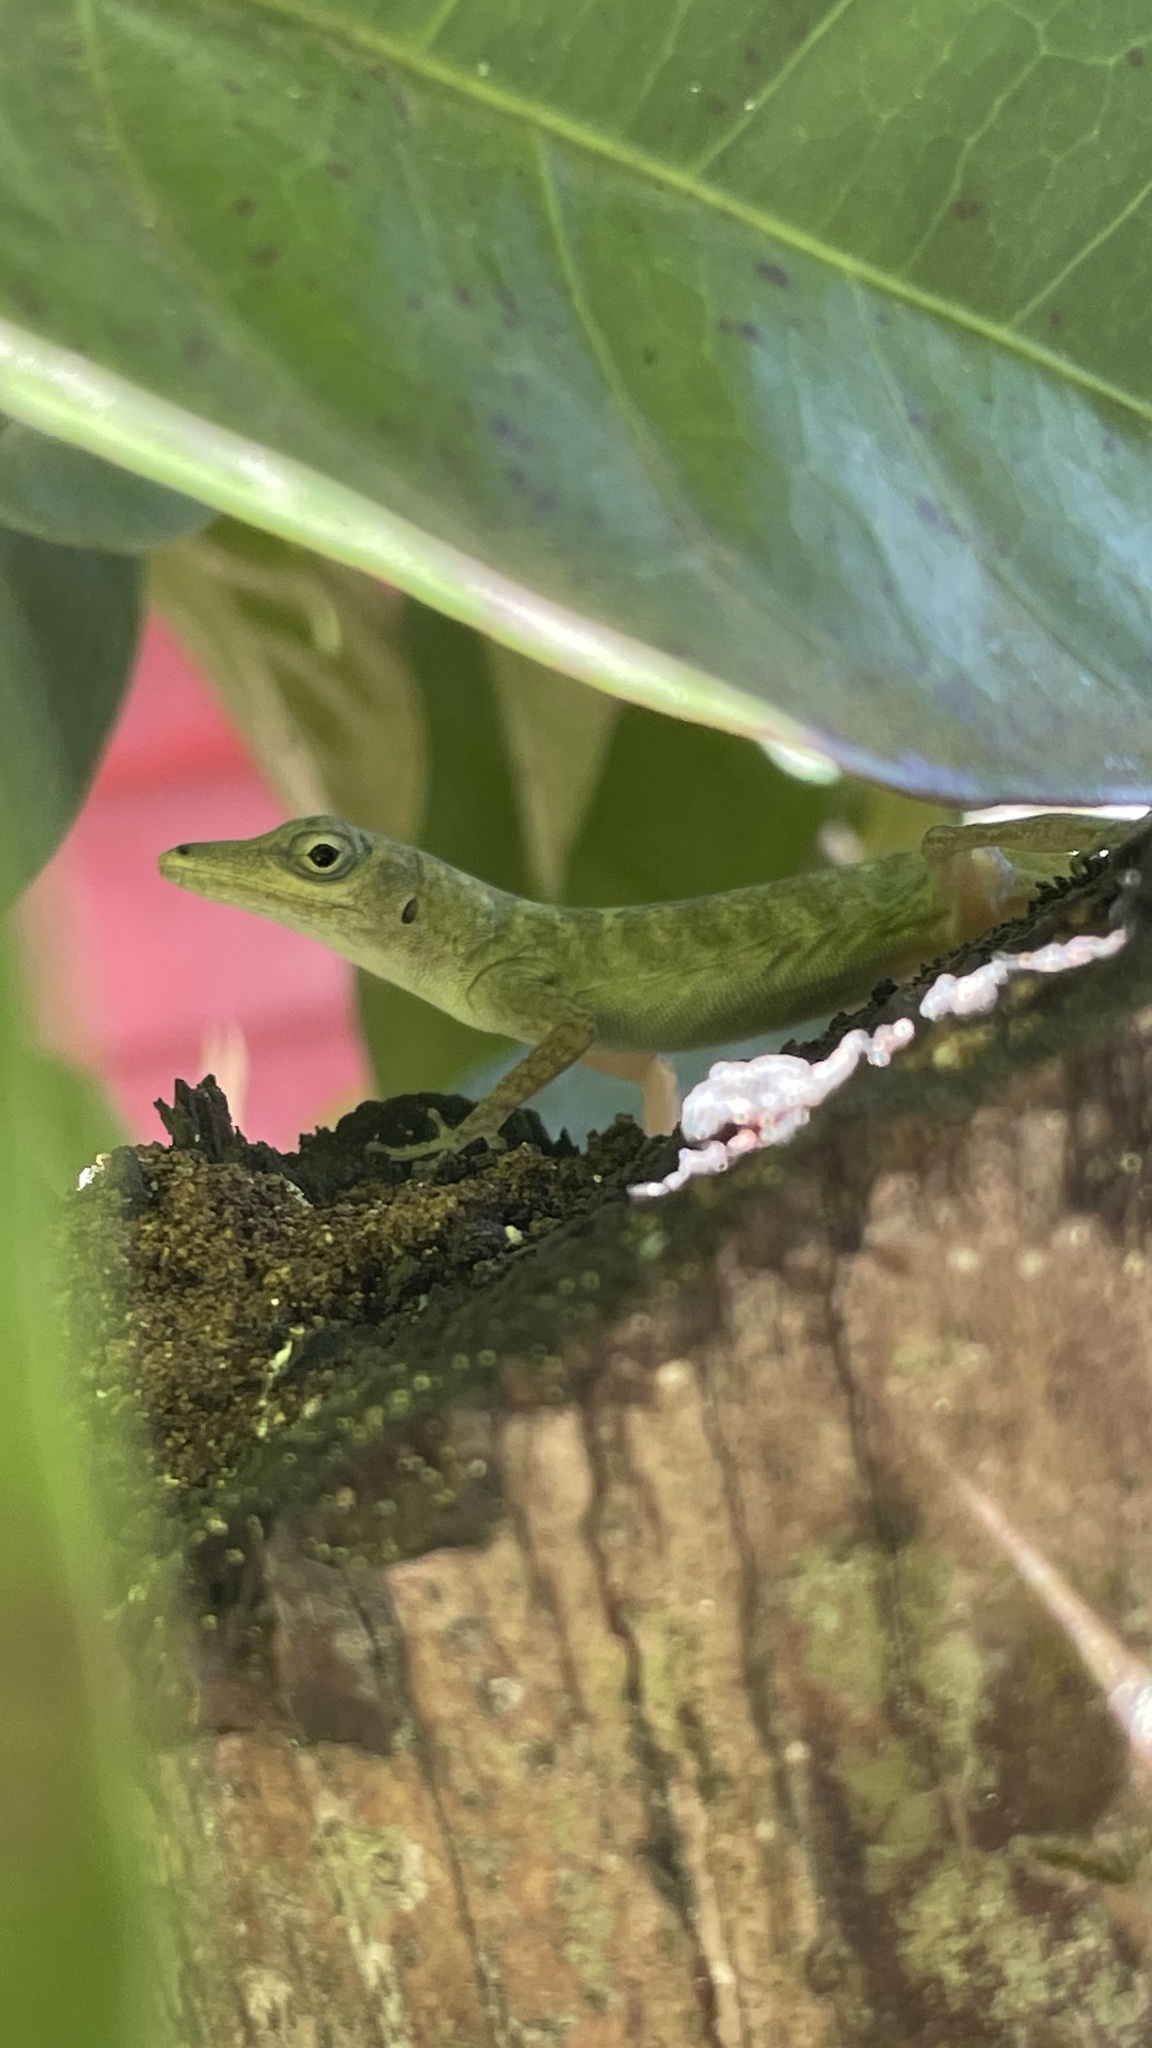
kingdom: Animalia
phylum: Chordata
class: Squamata
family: Dactyloidae
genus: Anolis
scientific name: Anolis aeneus
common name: Bronze anole
